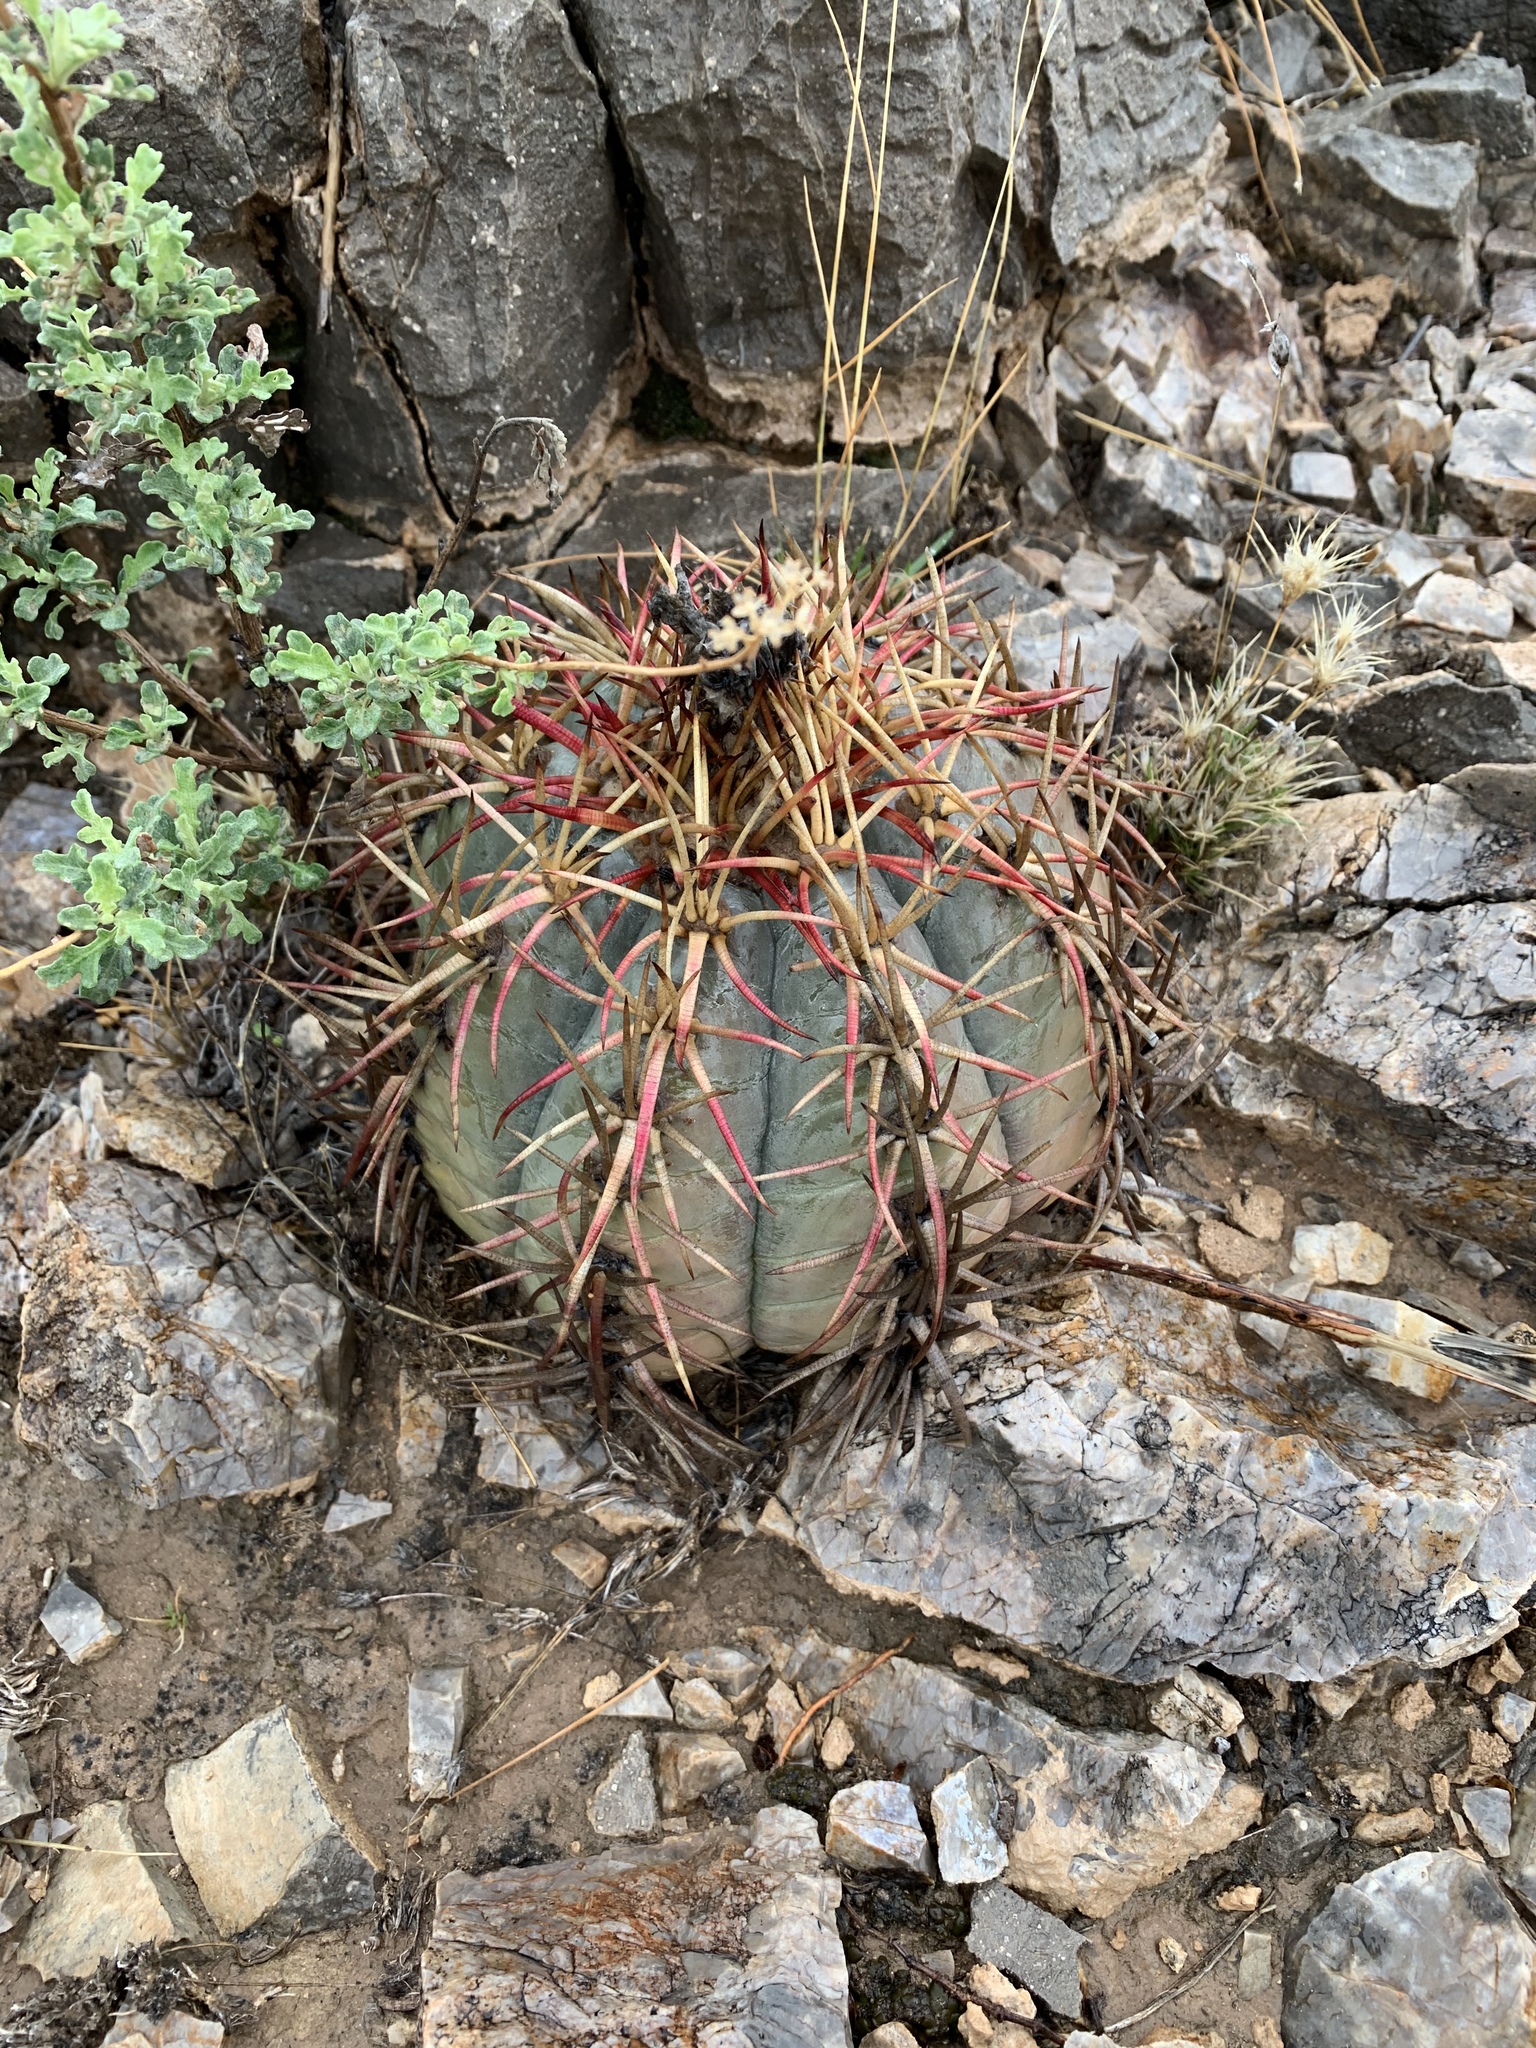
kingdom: Plantae
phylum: Tracheophyta
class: Magnoliopsida
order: Caryophyllales
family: Cactaceae
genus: Echinocactus
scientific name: Echinocactus horizonthalonius
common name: Devilshead
